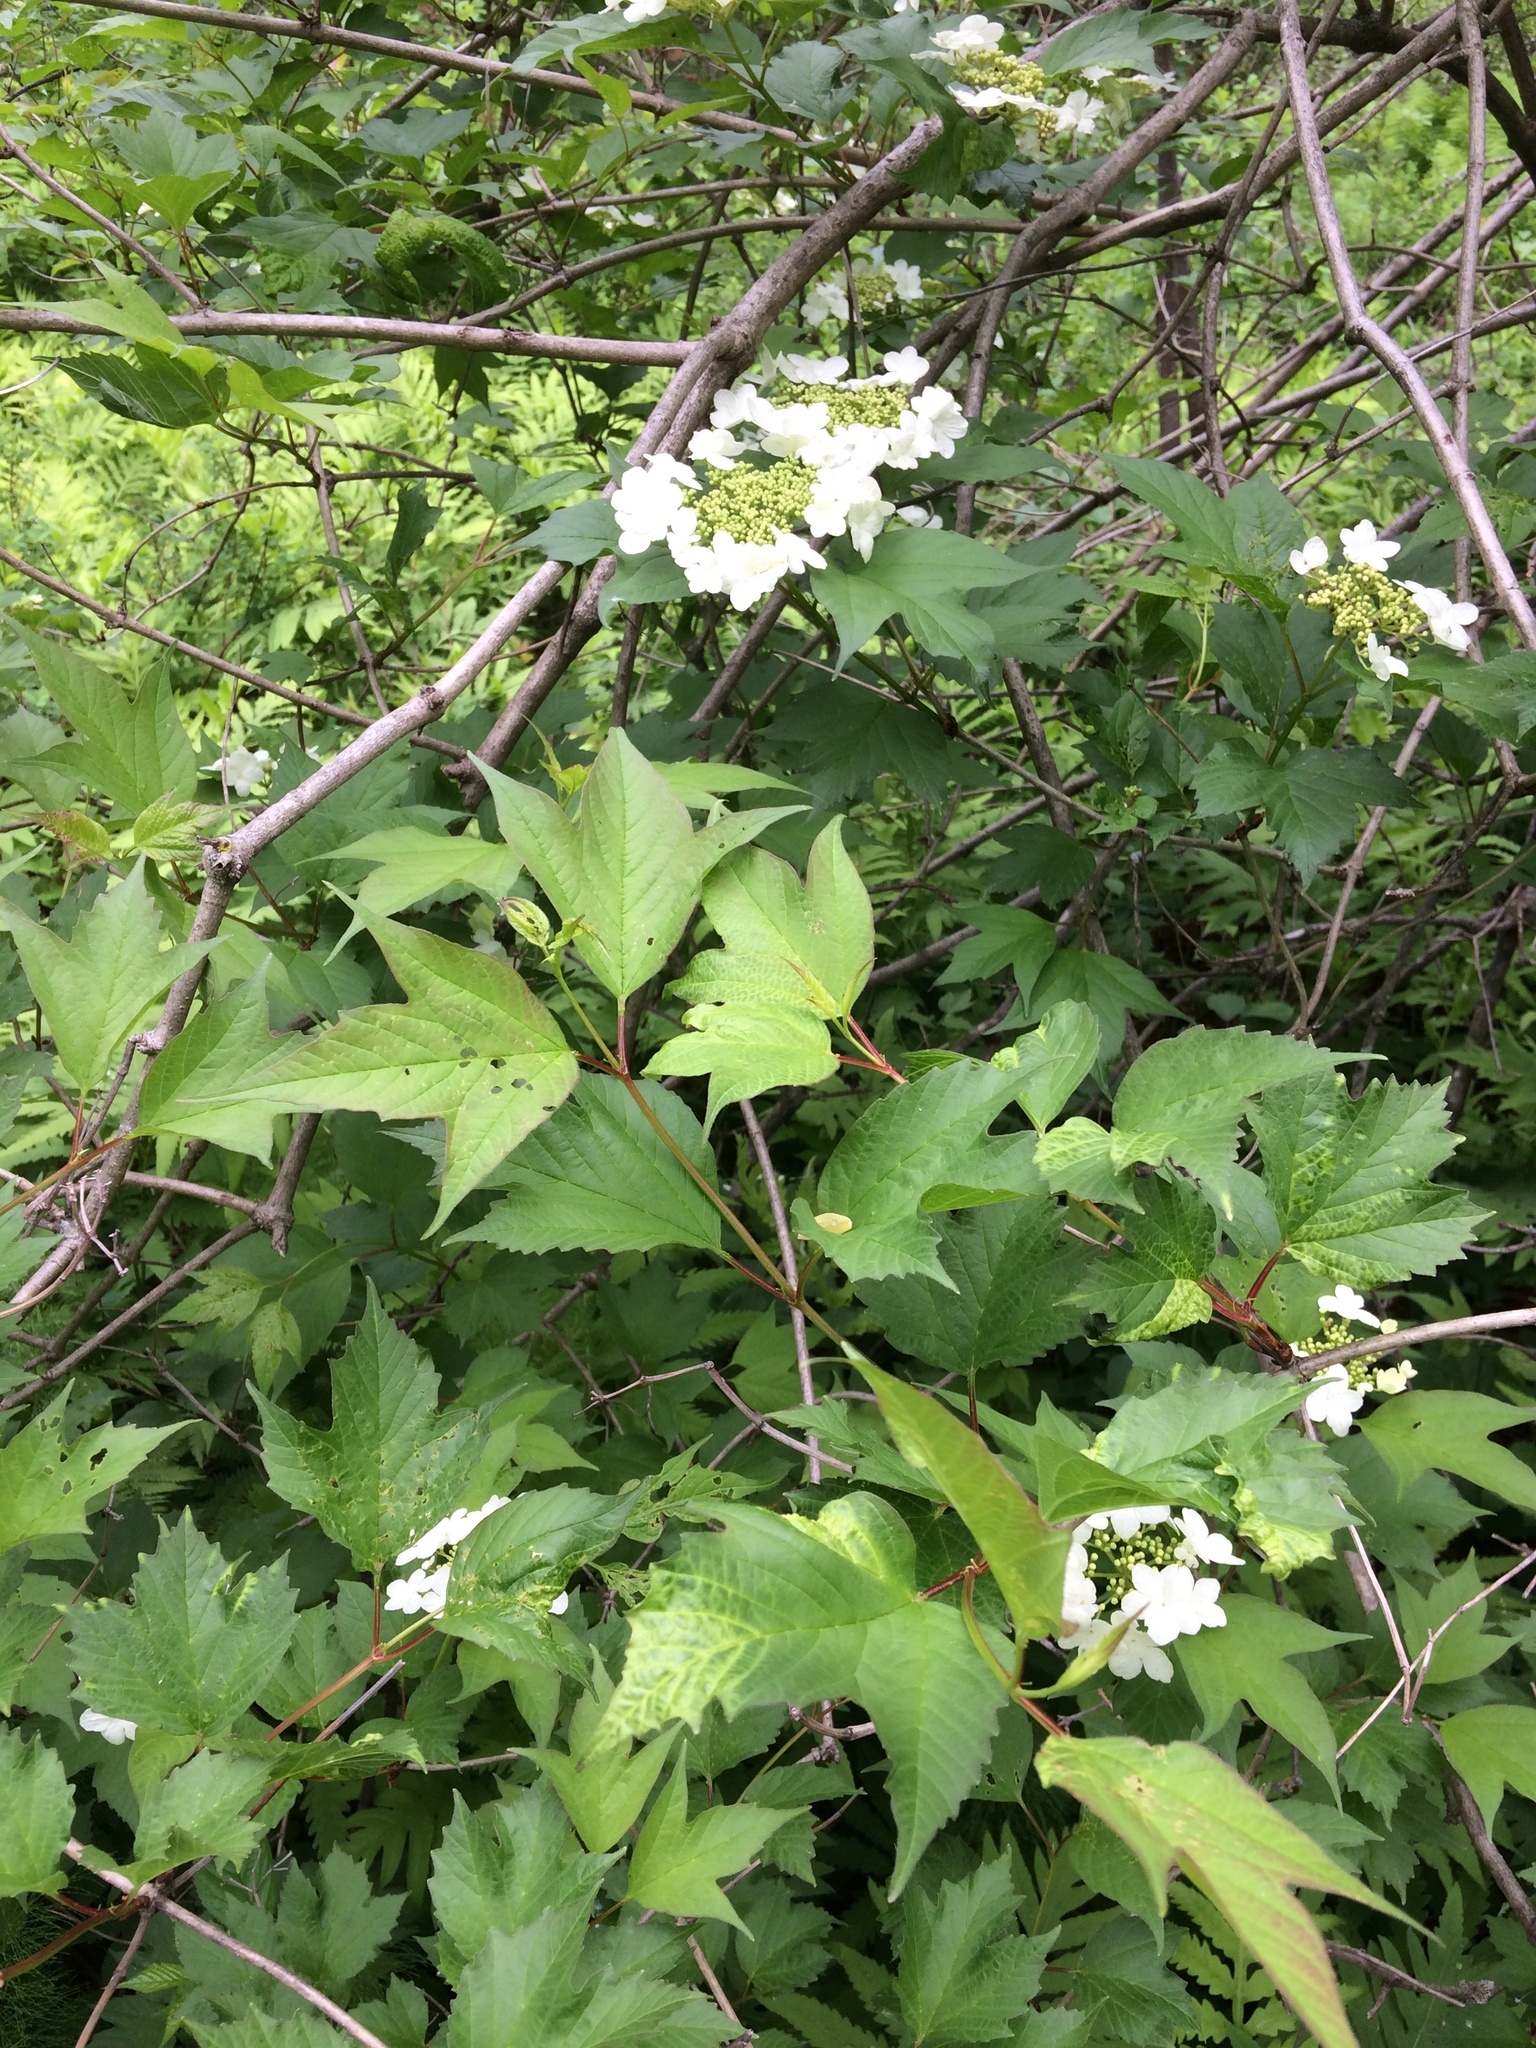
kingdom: Plantae
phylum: Tracheophyta
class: Magnoliopsida
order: Dipsacales
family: Viburnaceae
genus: Viburnum
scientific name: Viburnum opulus
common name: Guelder-rose
